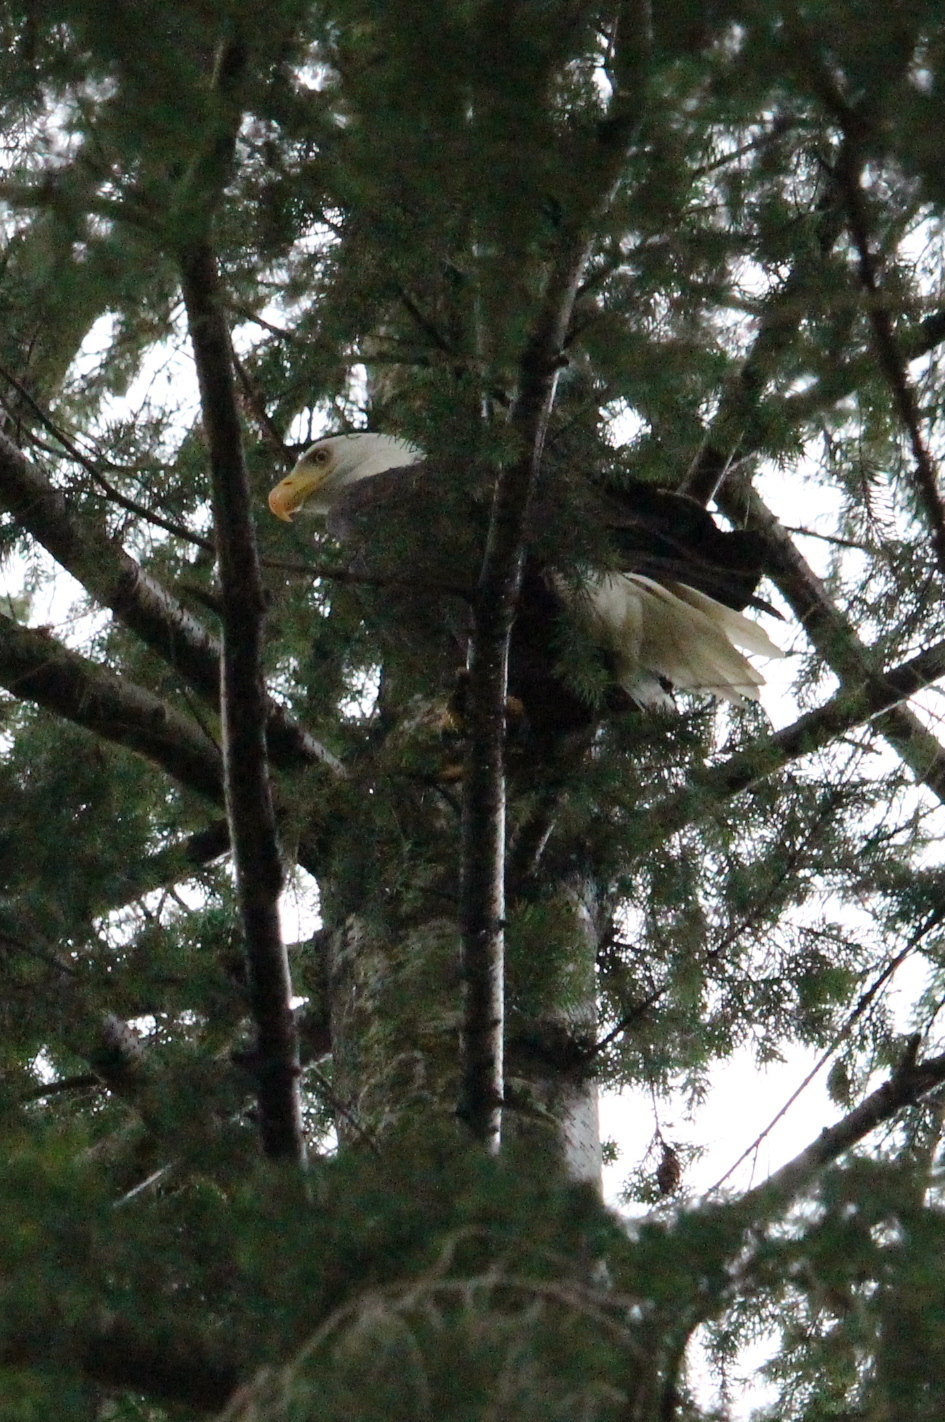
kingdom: Animalia
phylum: Chordata
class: Aves
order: Accipitriformes
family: Accipitridae
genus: Haliaeetus
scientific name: Haliaeetus leucocephalus
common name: Bald eagle
